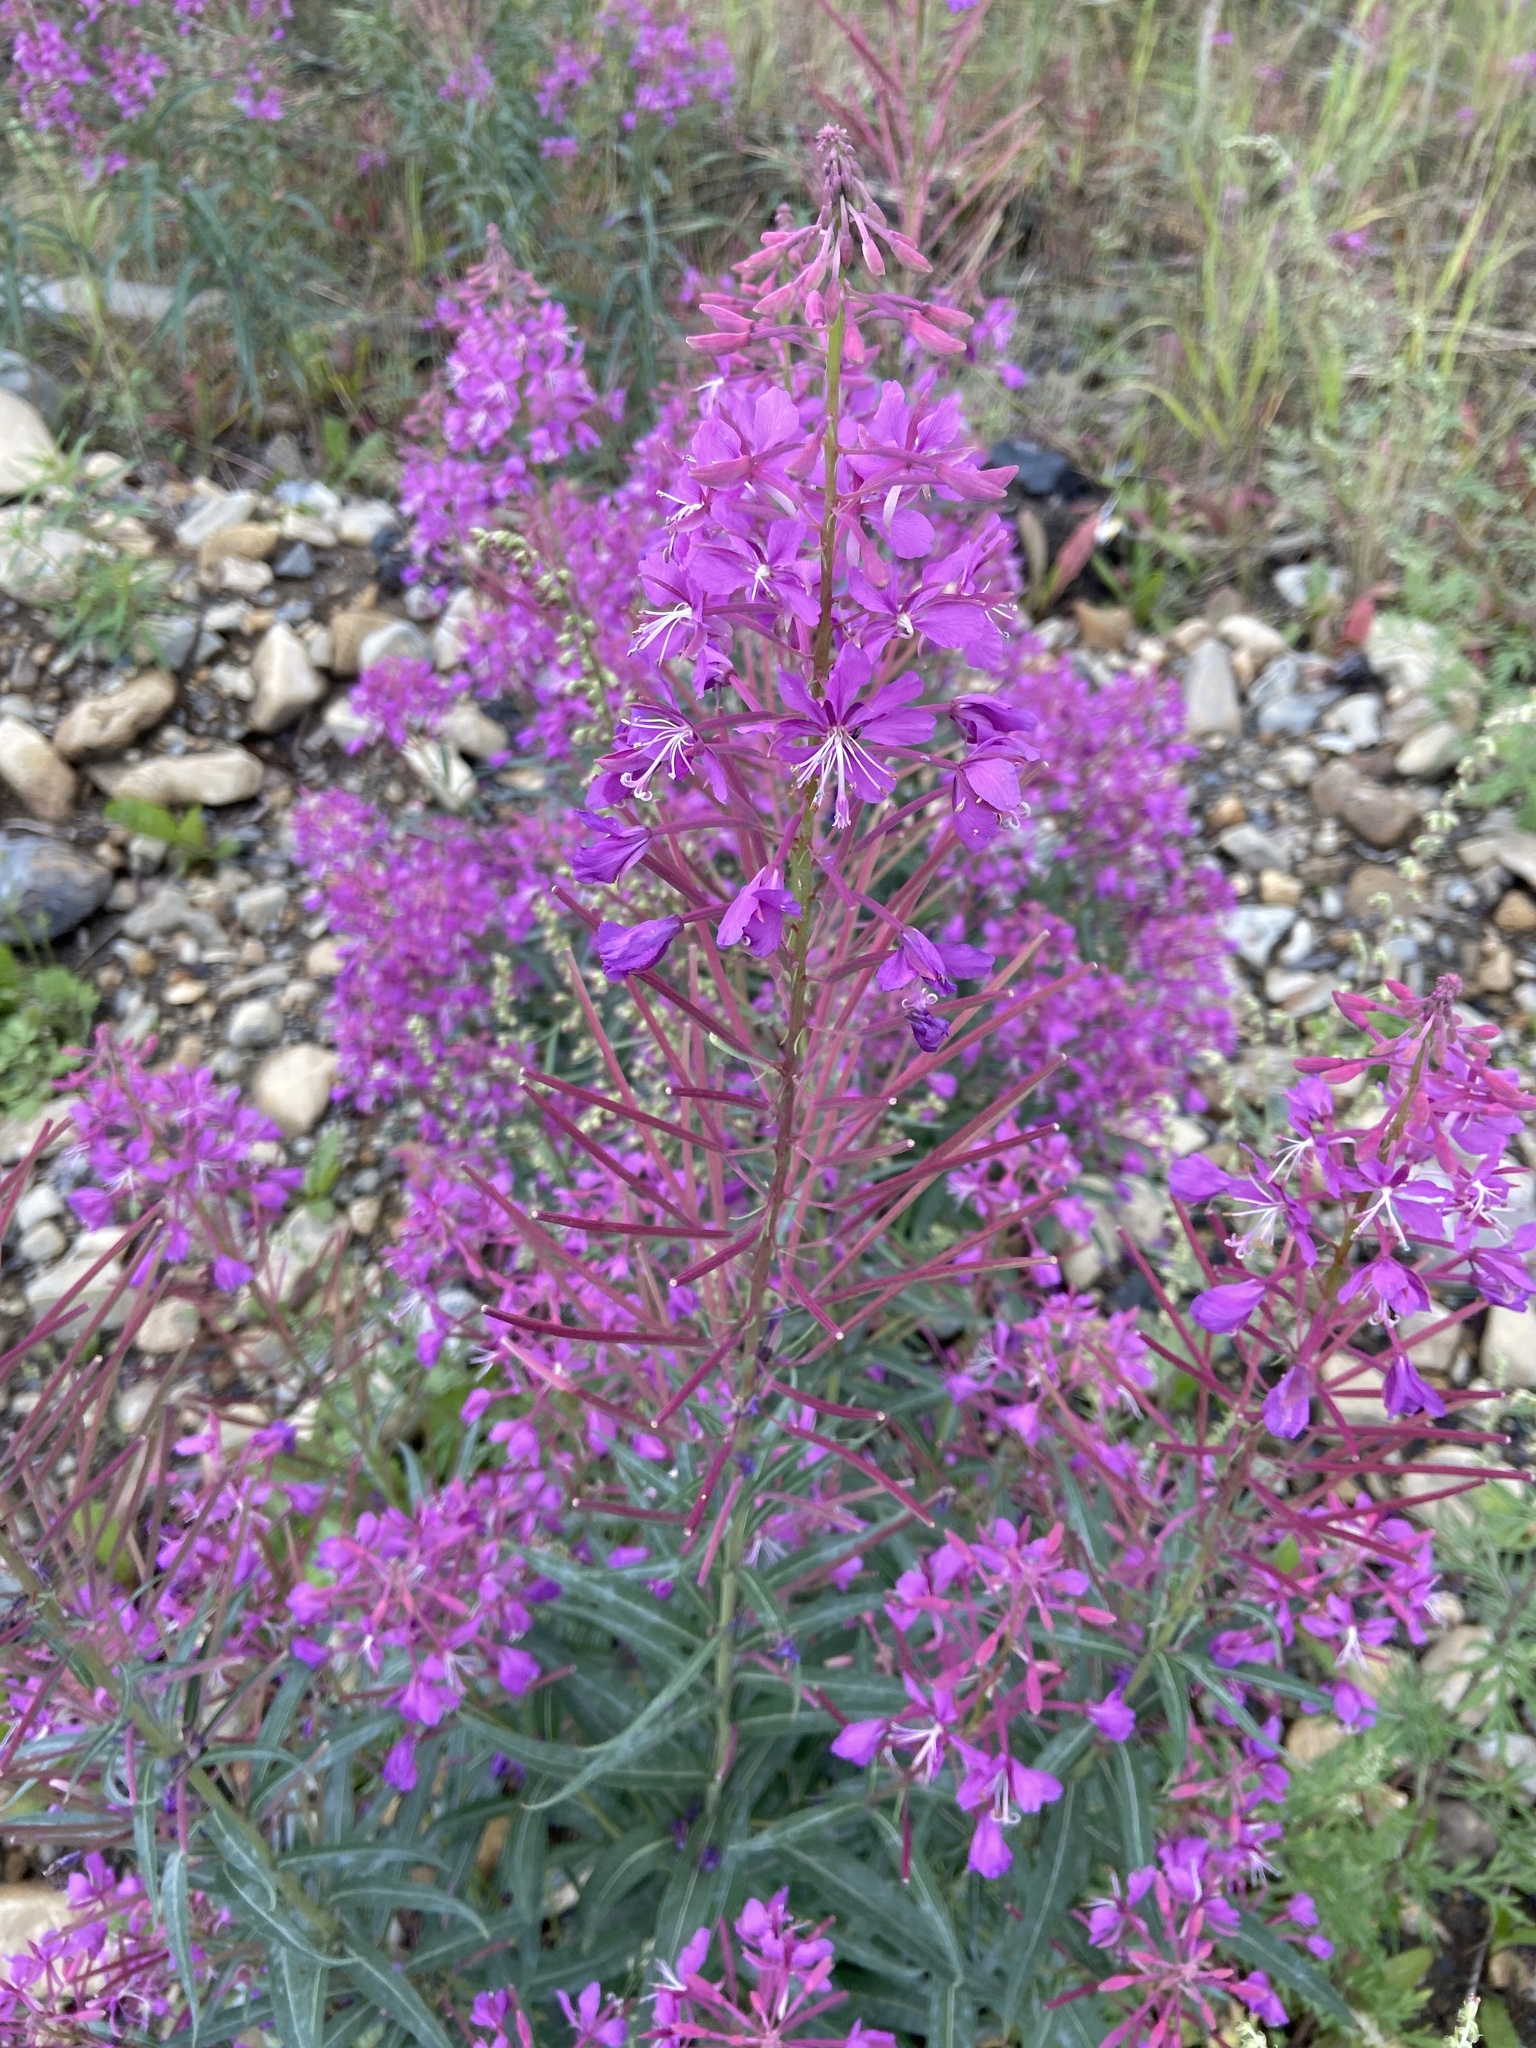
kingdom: Plantae
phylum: Tracheophyta
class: Magnoliopsida
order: Myrtales
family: Onagraceae
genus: Chamaenerion
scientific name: Chamaenerion angustifolium
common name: Fireweed
